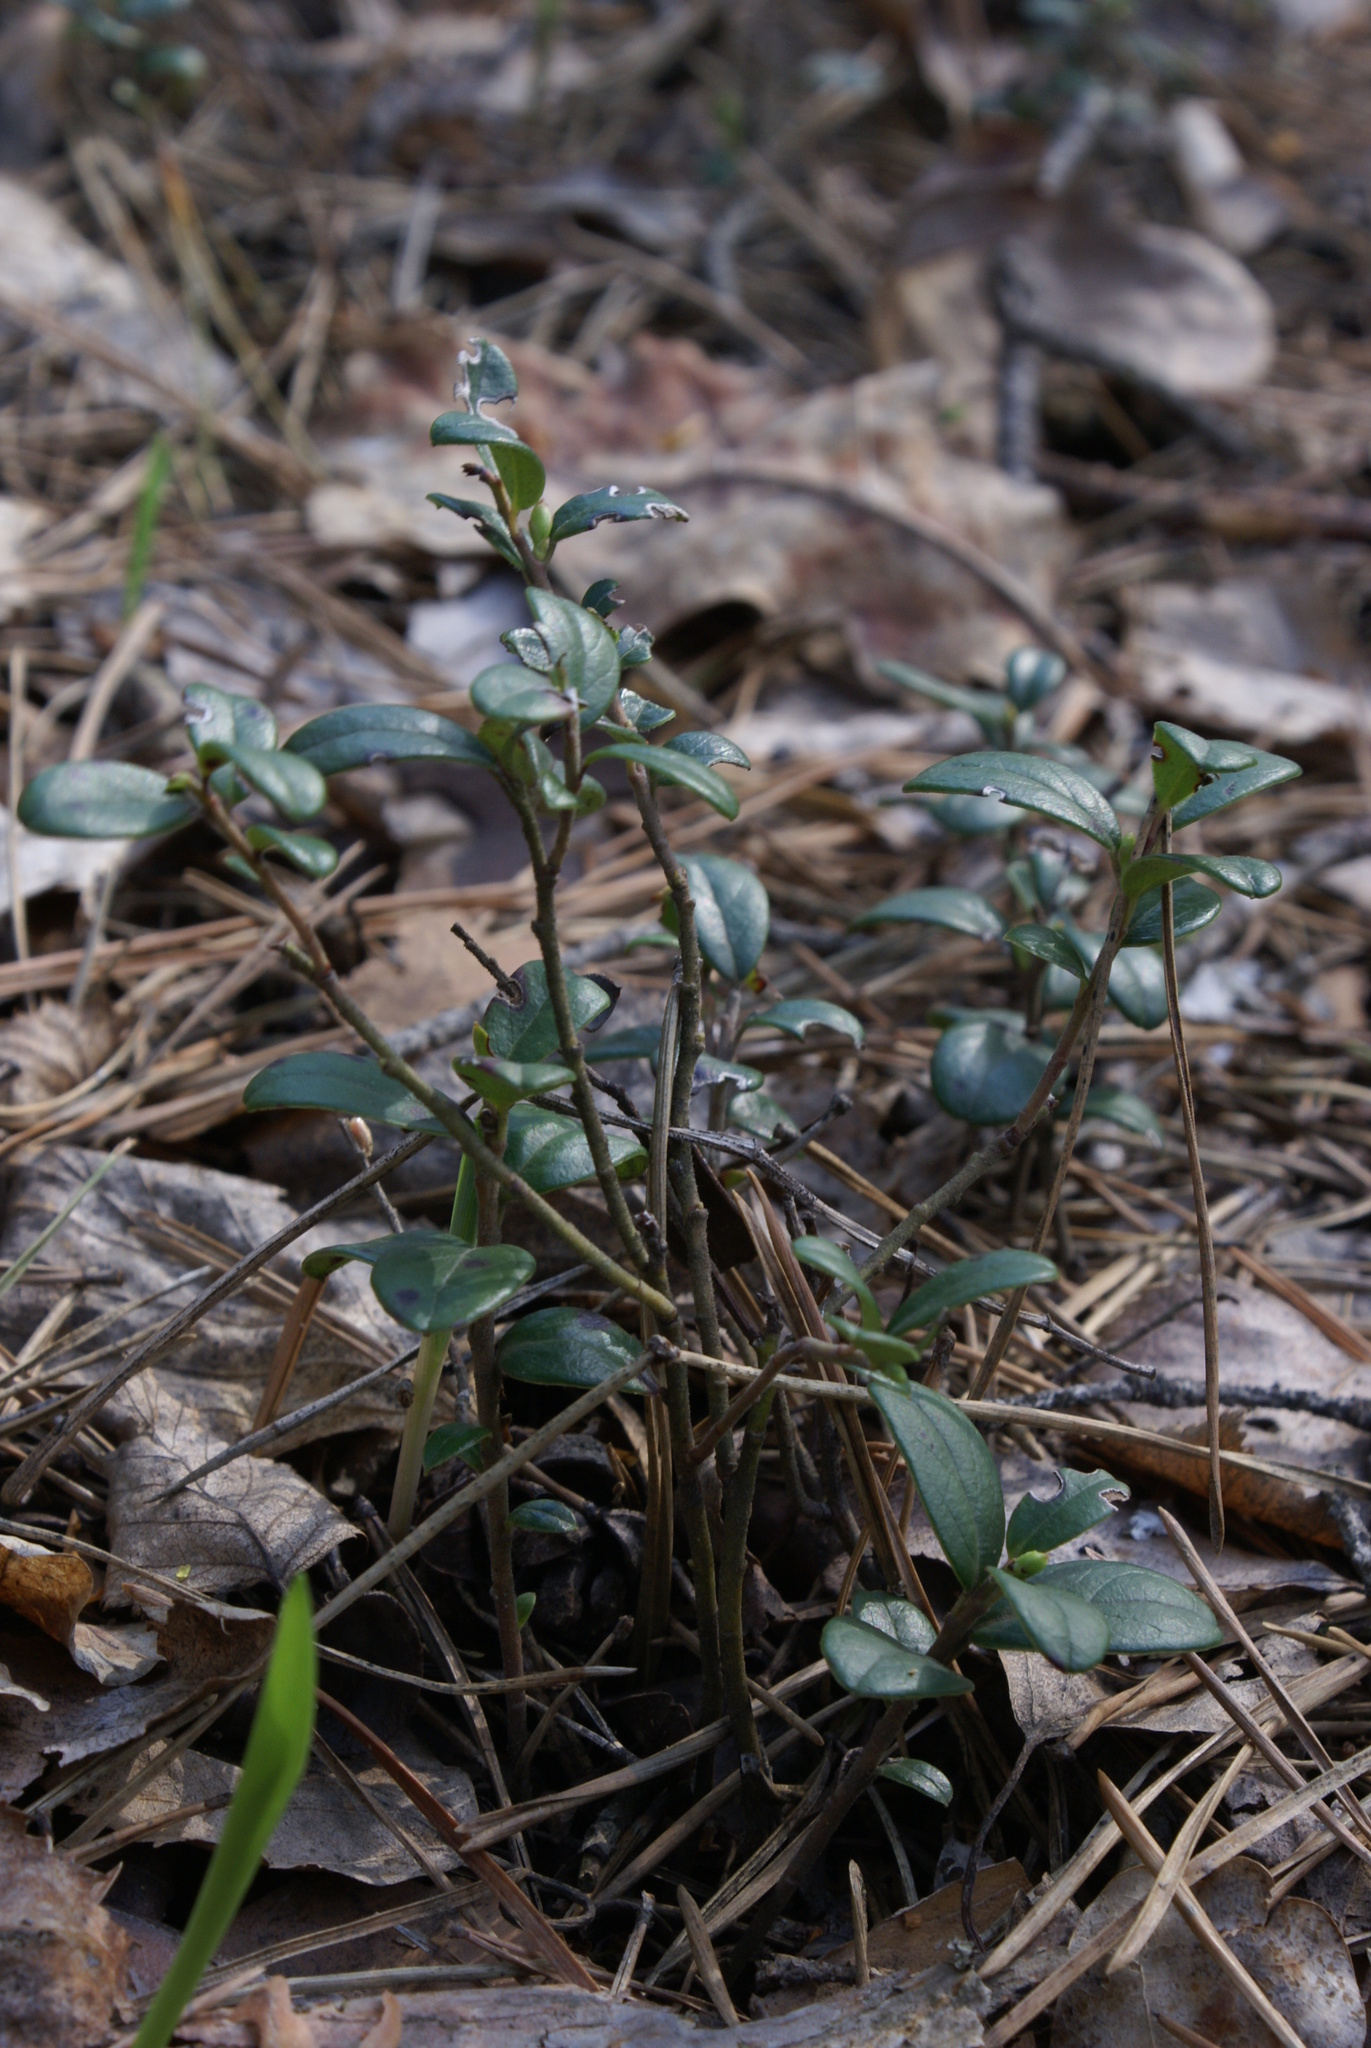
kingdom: Plantae
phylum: Tracheophyta
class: Magnoliopsida
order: Ericales
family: Ericaceae
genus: Vaccinium
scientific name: Vaccinium vitis-idaea
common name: Cowberry
